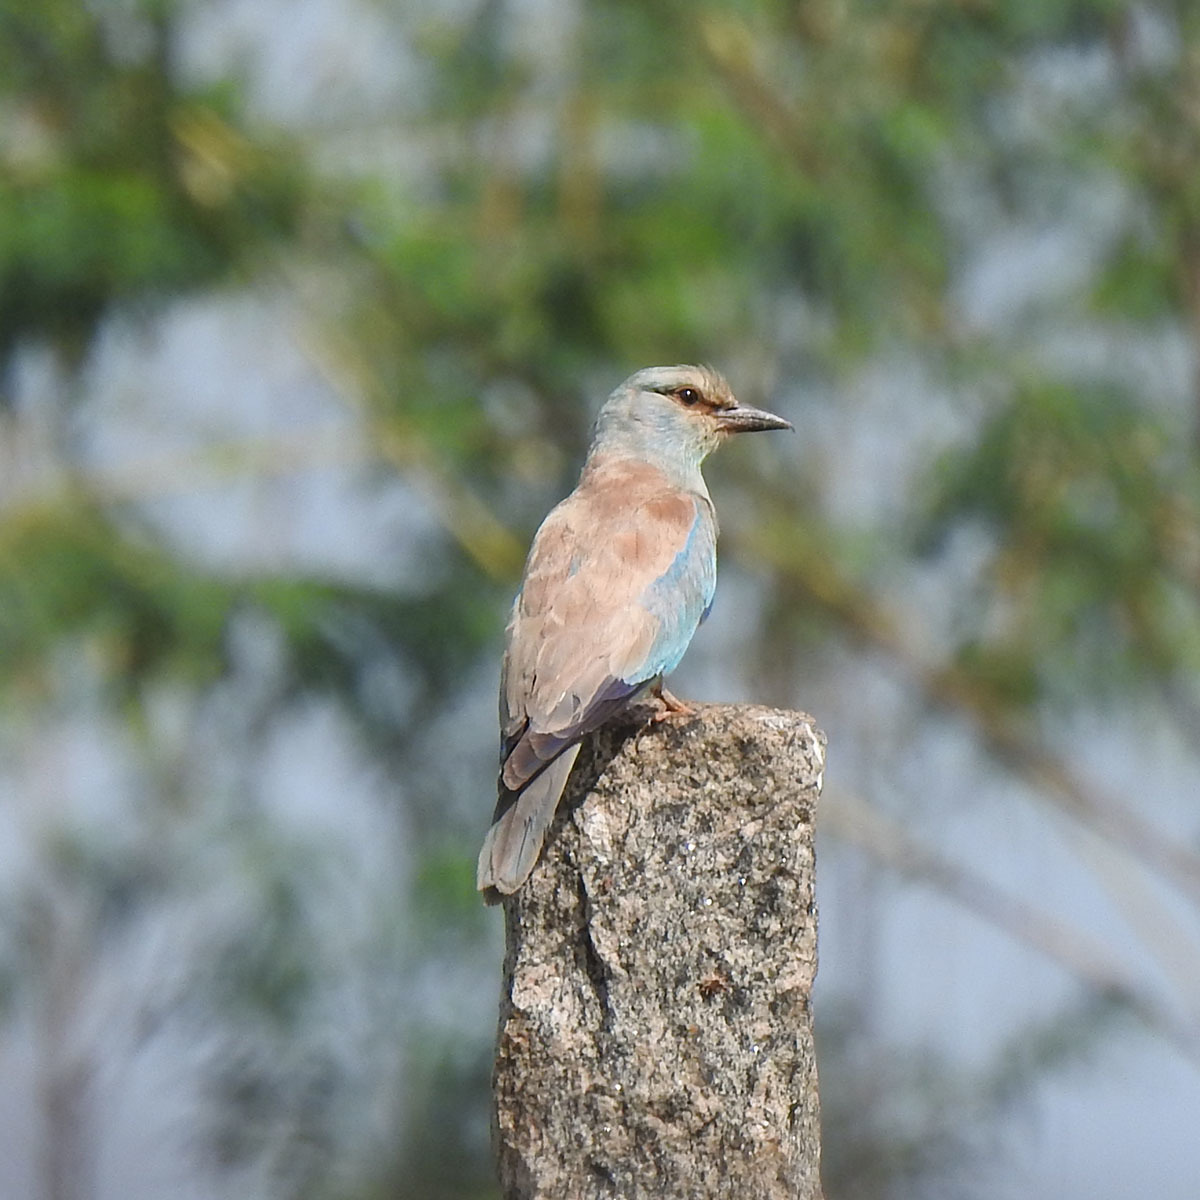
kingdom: Animalia
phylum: Chordata
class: Aves
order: Coraciiformes
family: Coraciidae
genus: Coracias
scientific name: Coracias garrulus
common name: European roller
